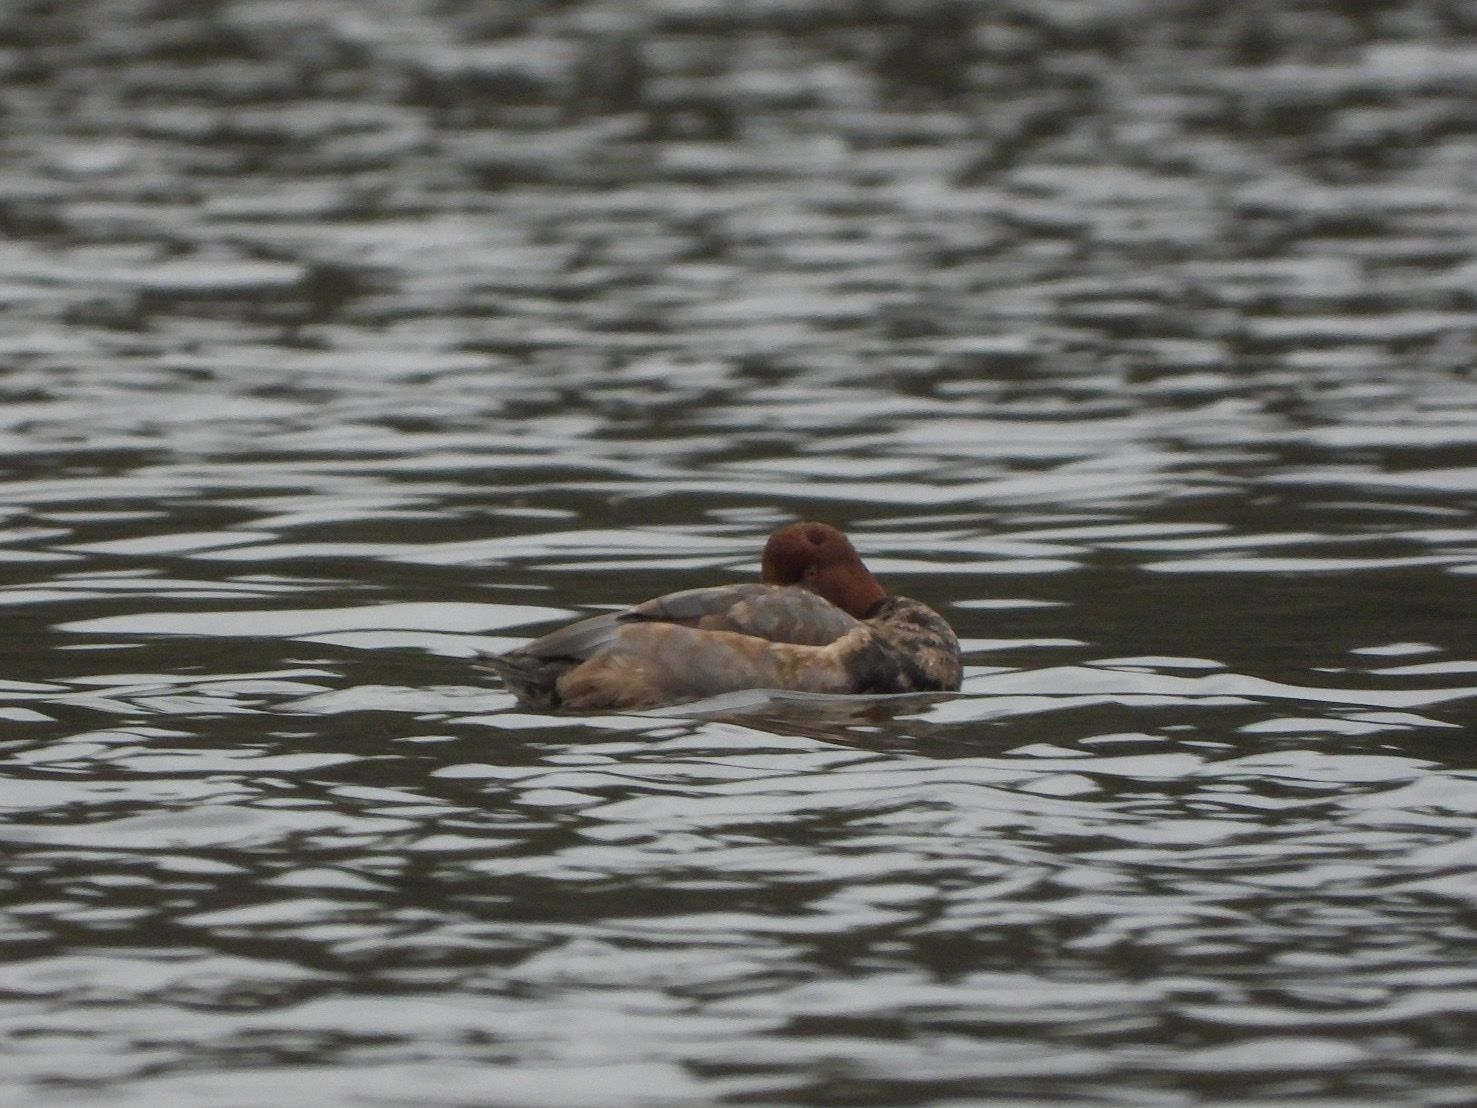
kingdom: Animalia
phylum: Chordata
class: Aves
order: Anseriformes
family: Anatidae
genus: Aythya
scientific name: Aythya americana
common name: Redhead
